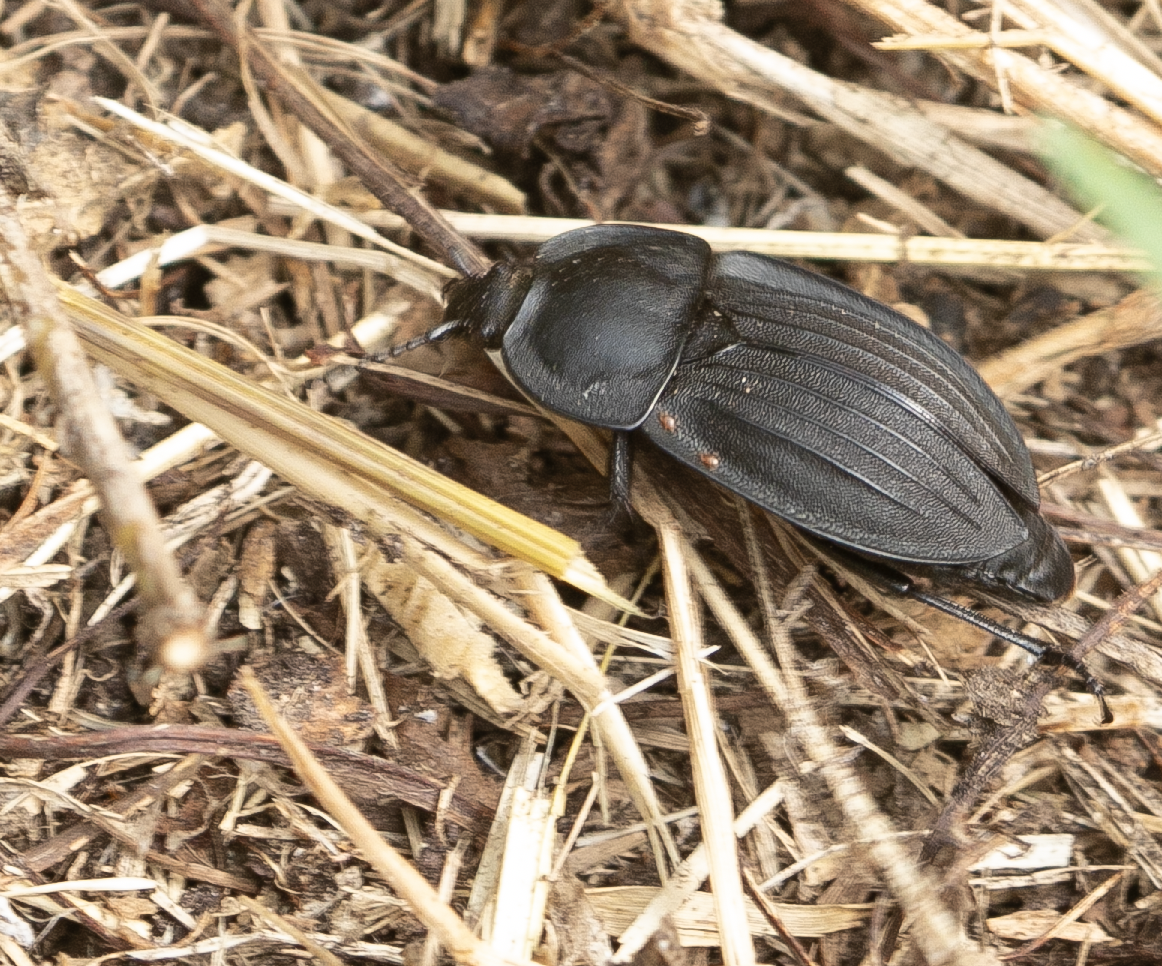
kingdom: Animalia
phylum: Arthropoda
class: Insecta
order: Coleoptera
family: Staphylinidae
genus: Silpha
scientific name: Silpha carinata
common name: Silphid beetle
